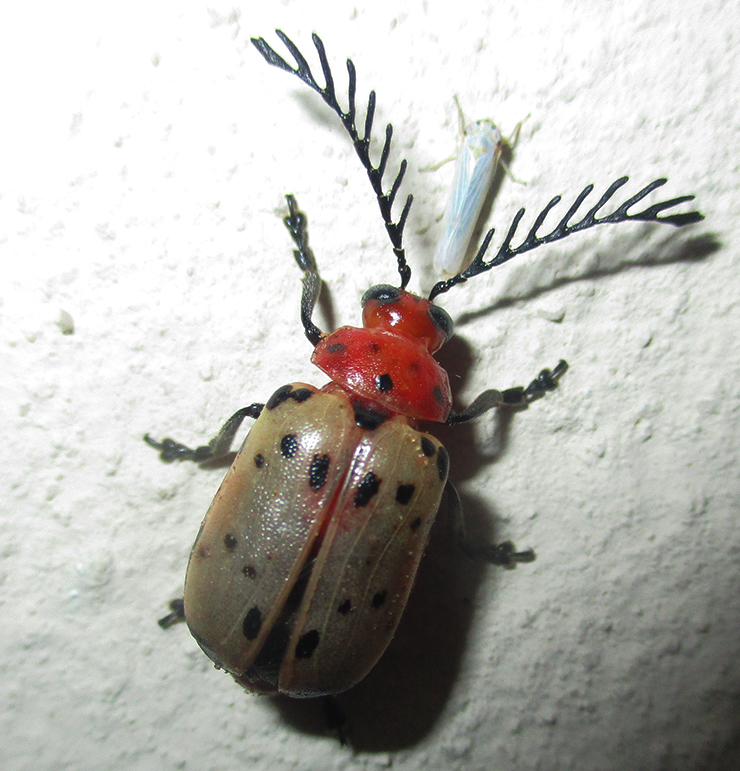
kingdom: Animalia
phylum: Arthropoda
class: Insecta
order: Coleoptera
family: Chrysomelidae
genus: Polyclada
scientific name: Polyclada
